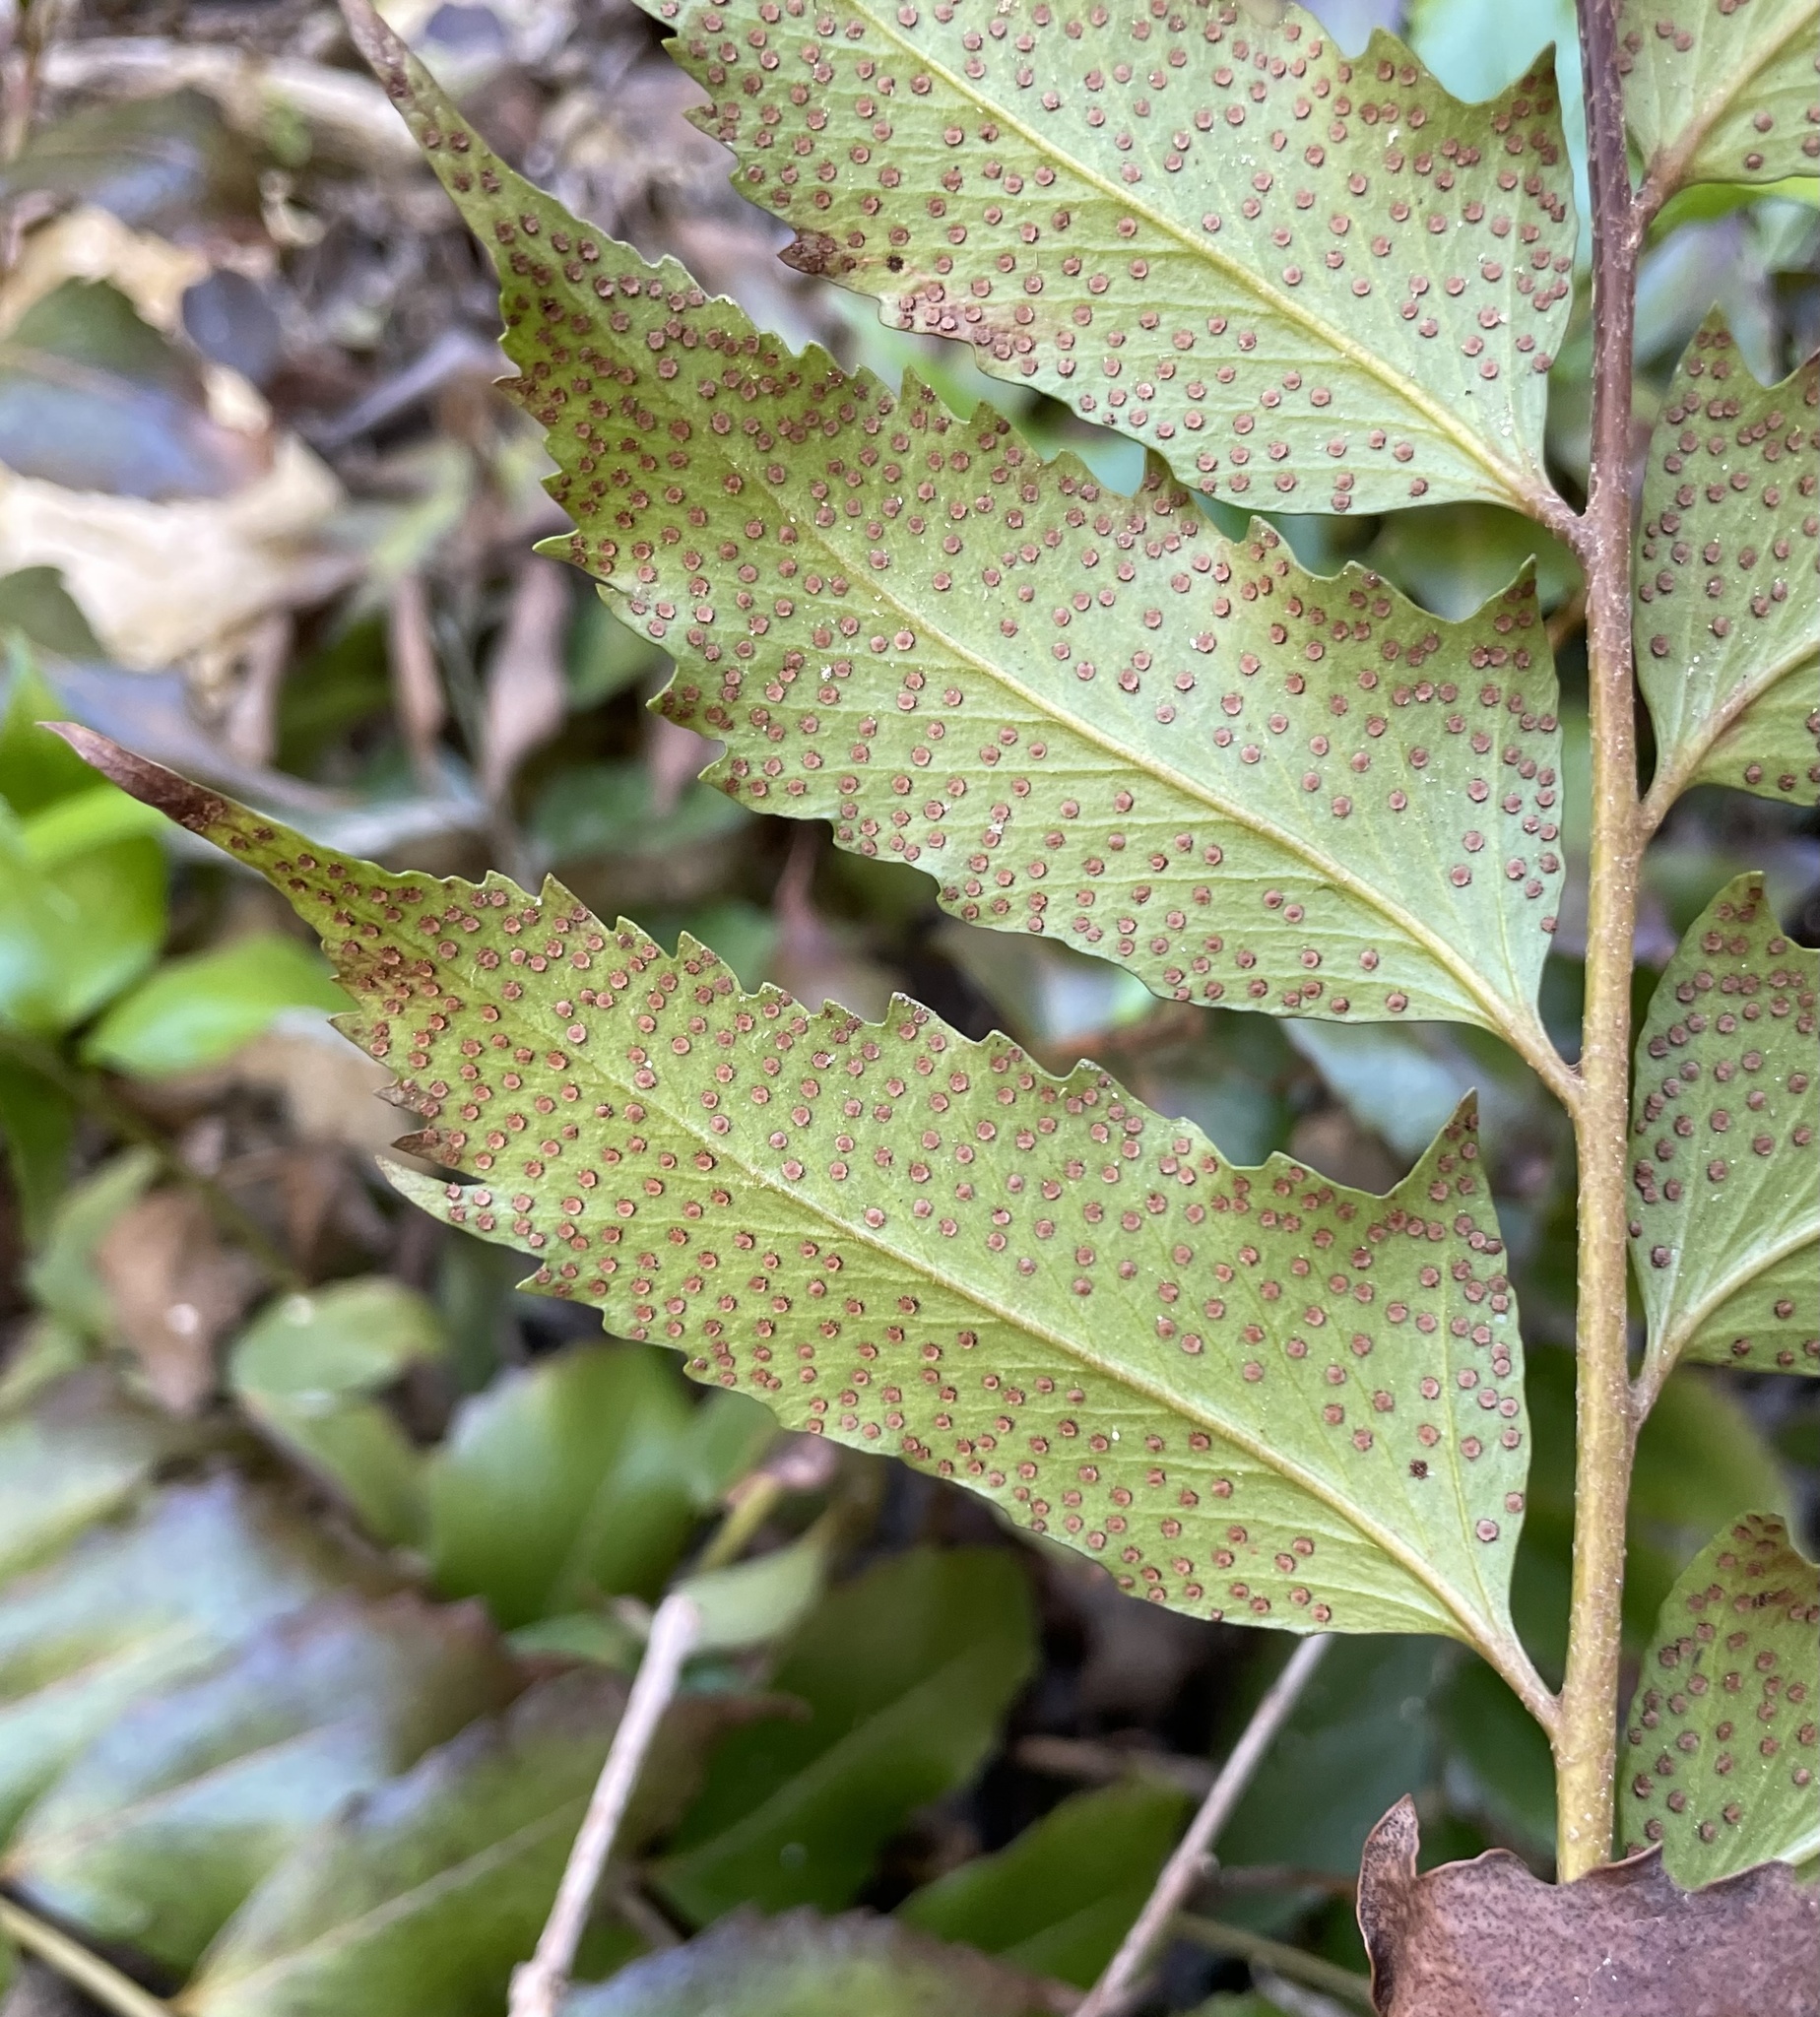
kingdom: Plantae
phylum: Tracheophyta
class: Polypodiopsida
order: Polypodiales
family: Dryopteridaceae
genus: Cyrtomium
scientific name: Cyrtomium falcatum
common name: House holly-fern
